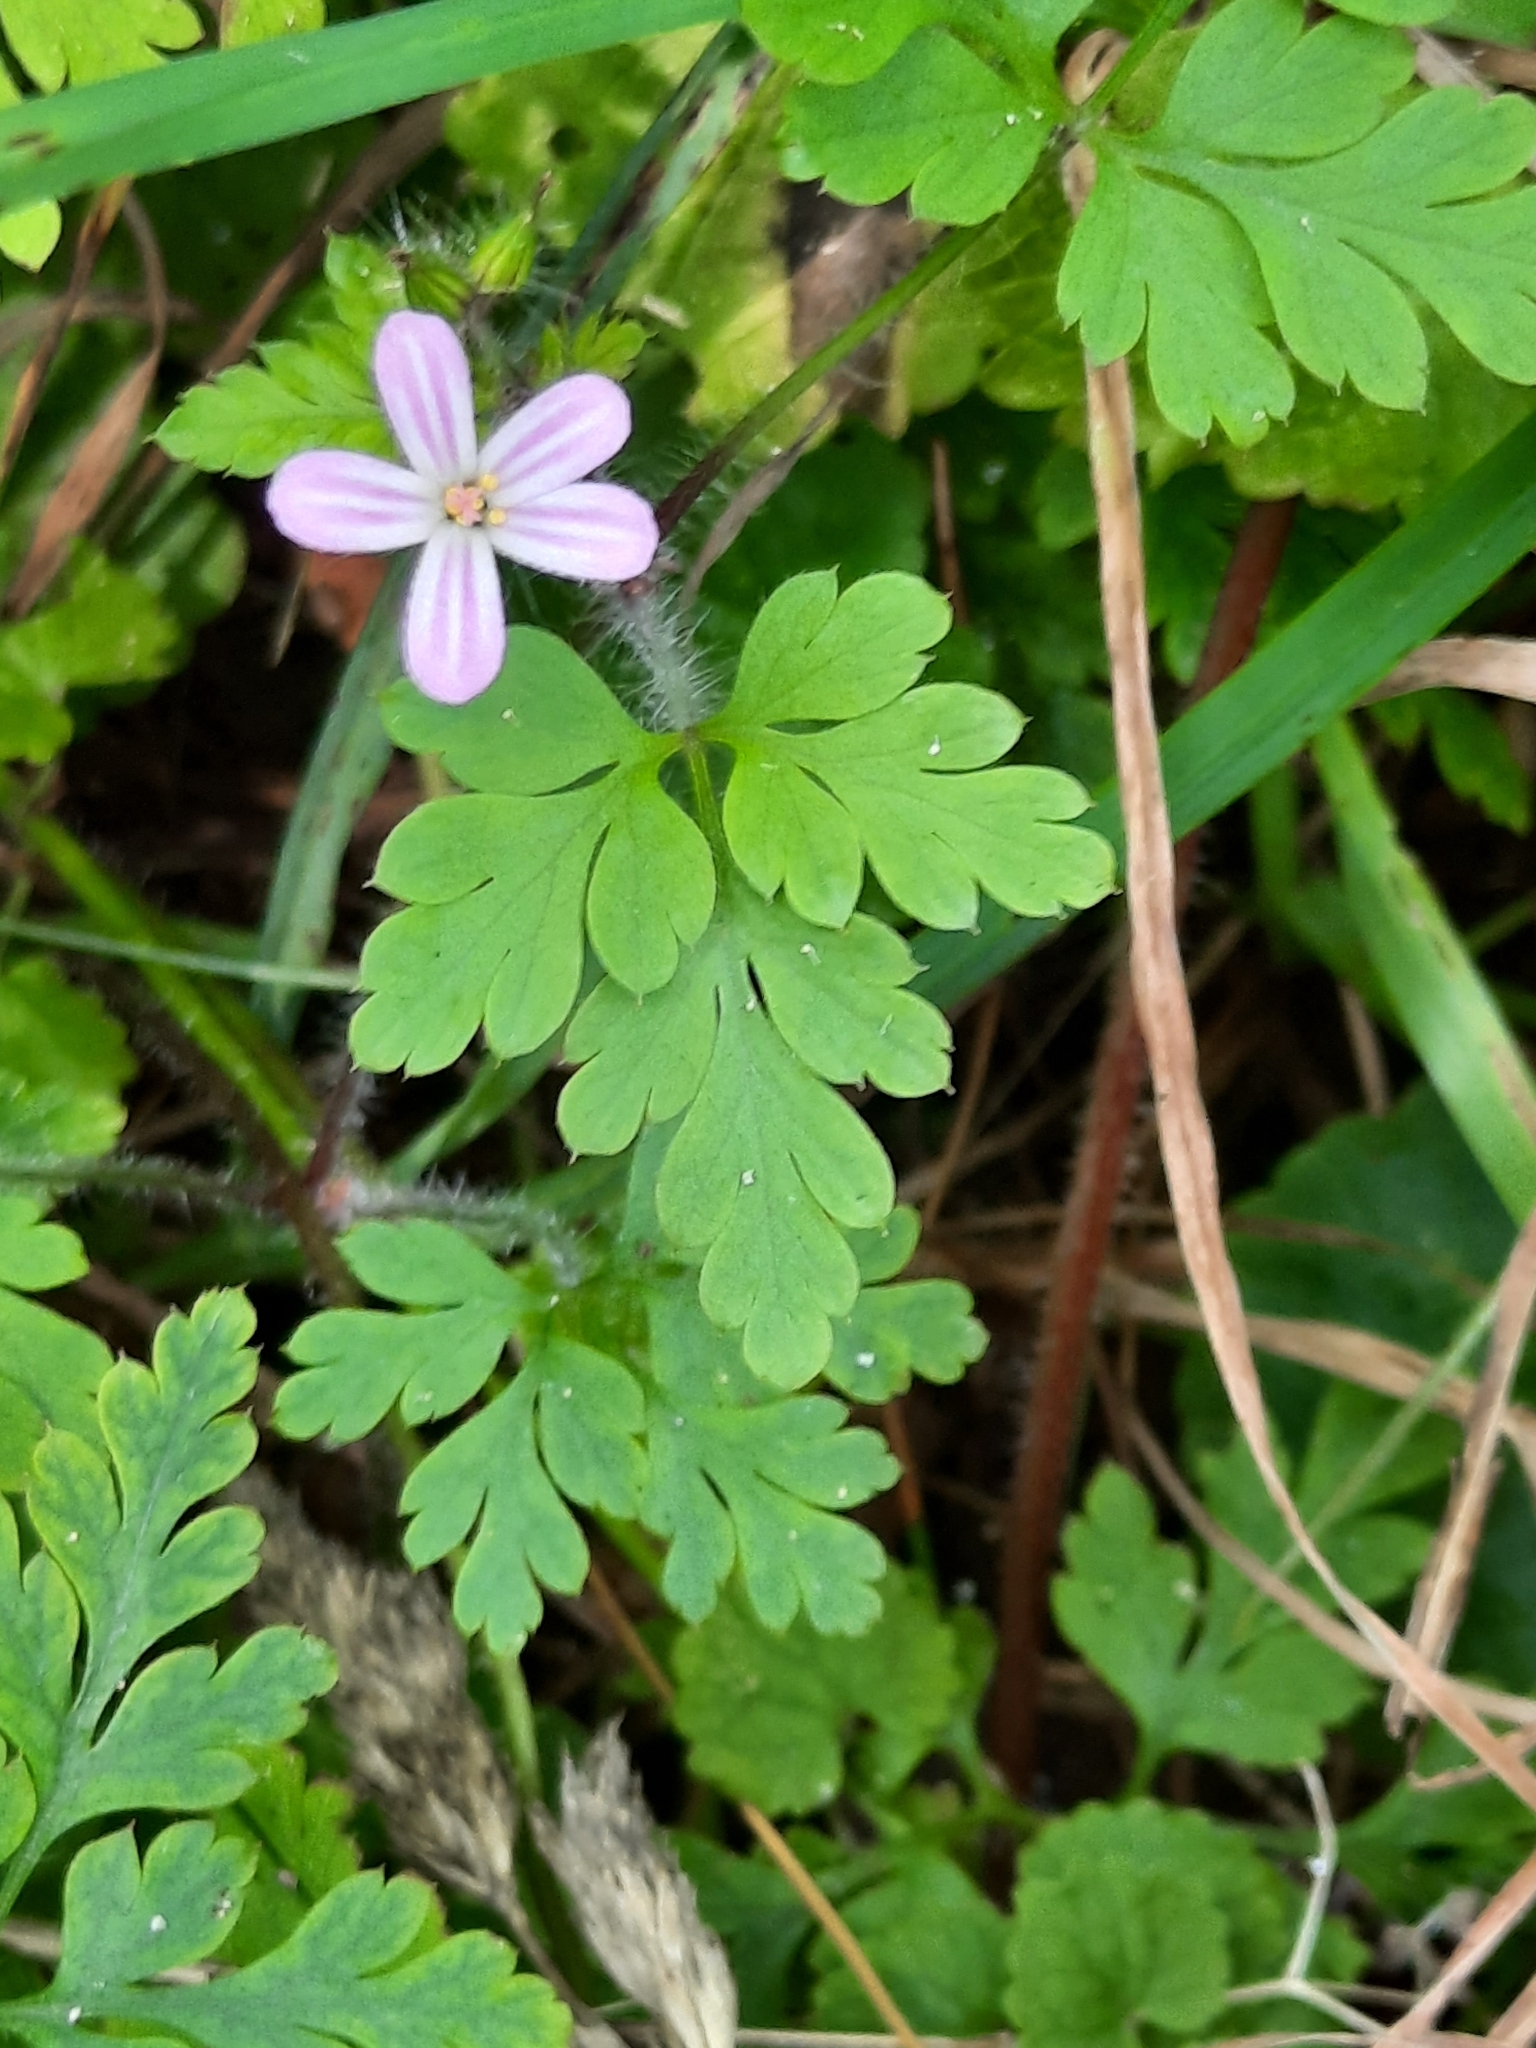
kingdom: Plantae
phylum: Tracheophyta
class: Magnoliopsida
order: Geraniales
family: Geraniaceae
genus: Geranium
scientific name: Geranium robertianum
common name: Herb-robert
